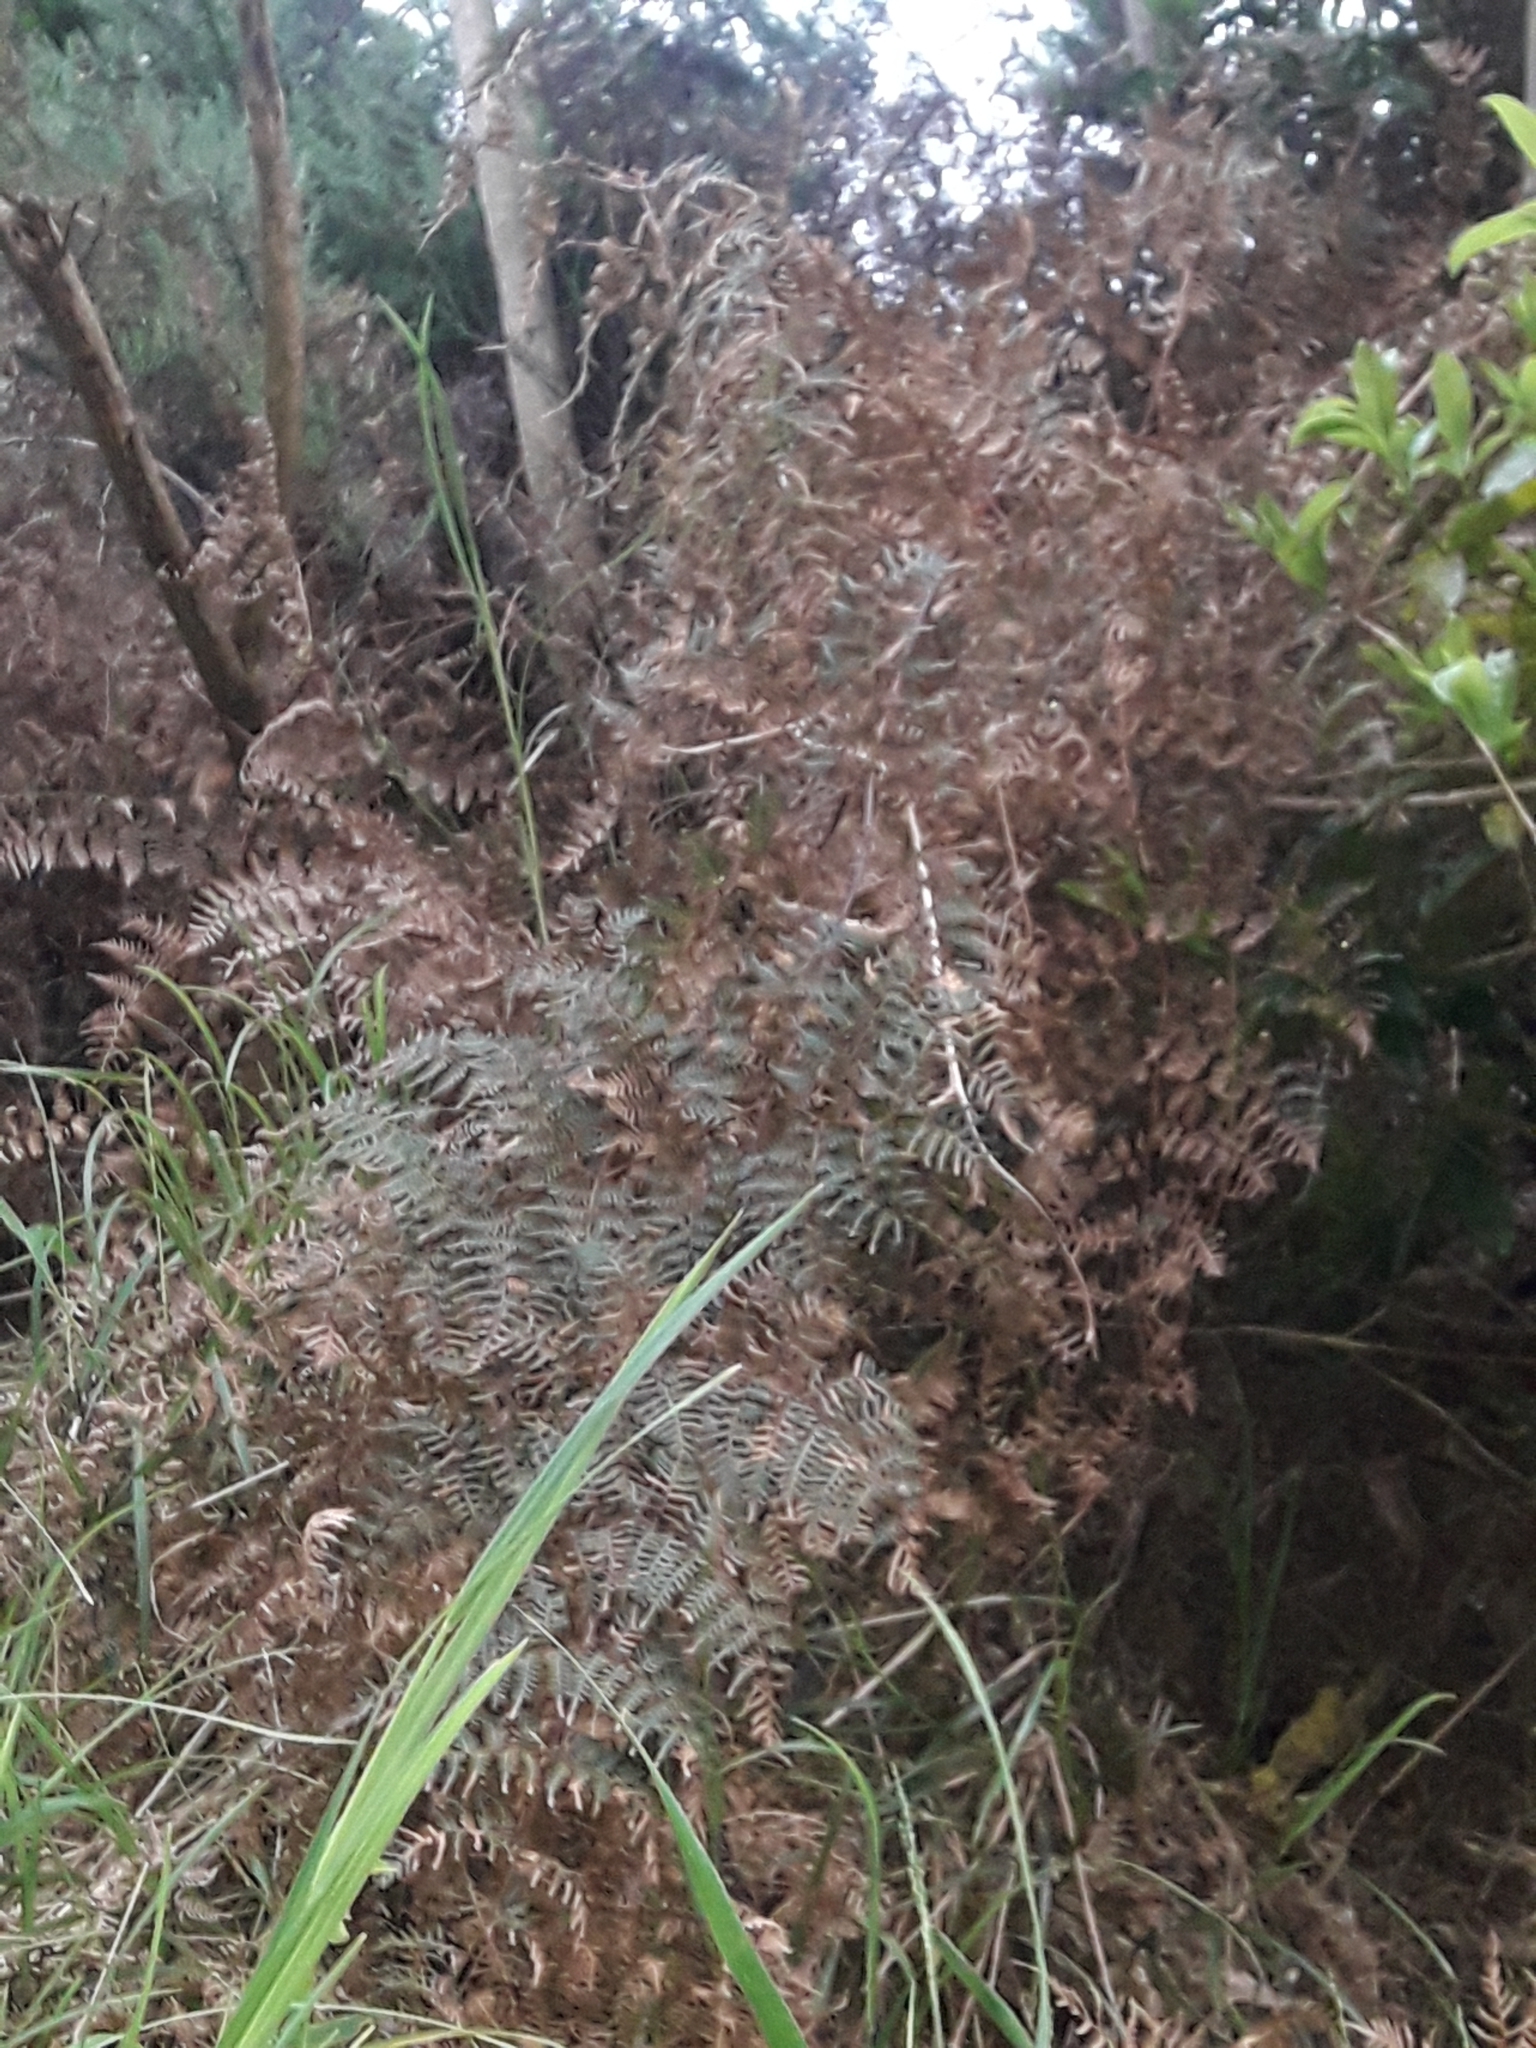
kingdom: Plantae
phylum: Tracheophyta
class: Polypodiopsida
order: Polypodiales
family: Dennstaedtiaceae
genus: Pteridium
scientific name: Pteridium esculentum
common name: Bracken fern
